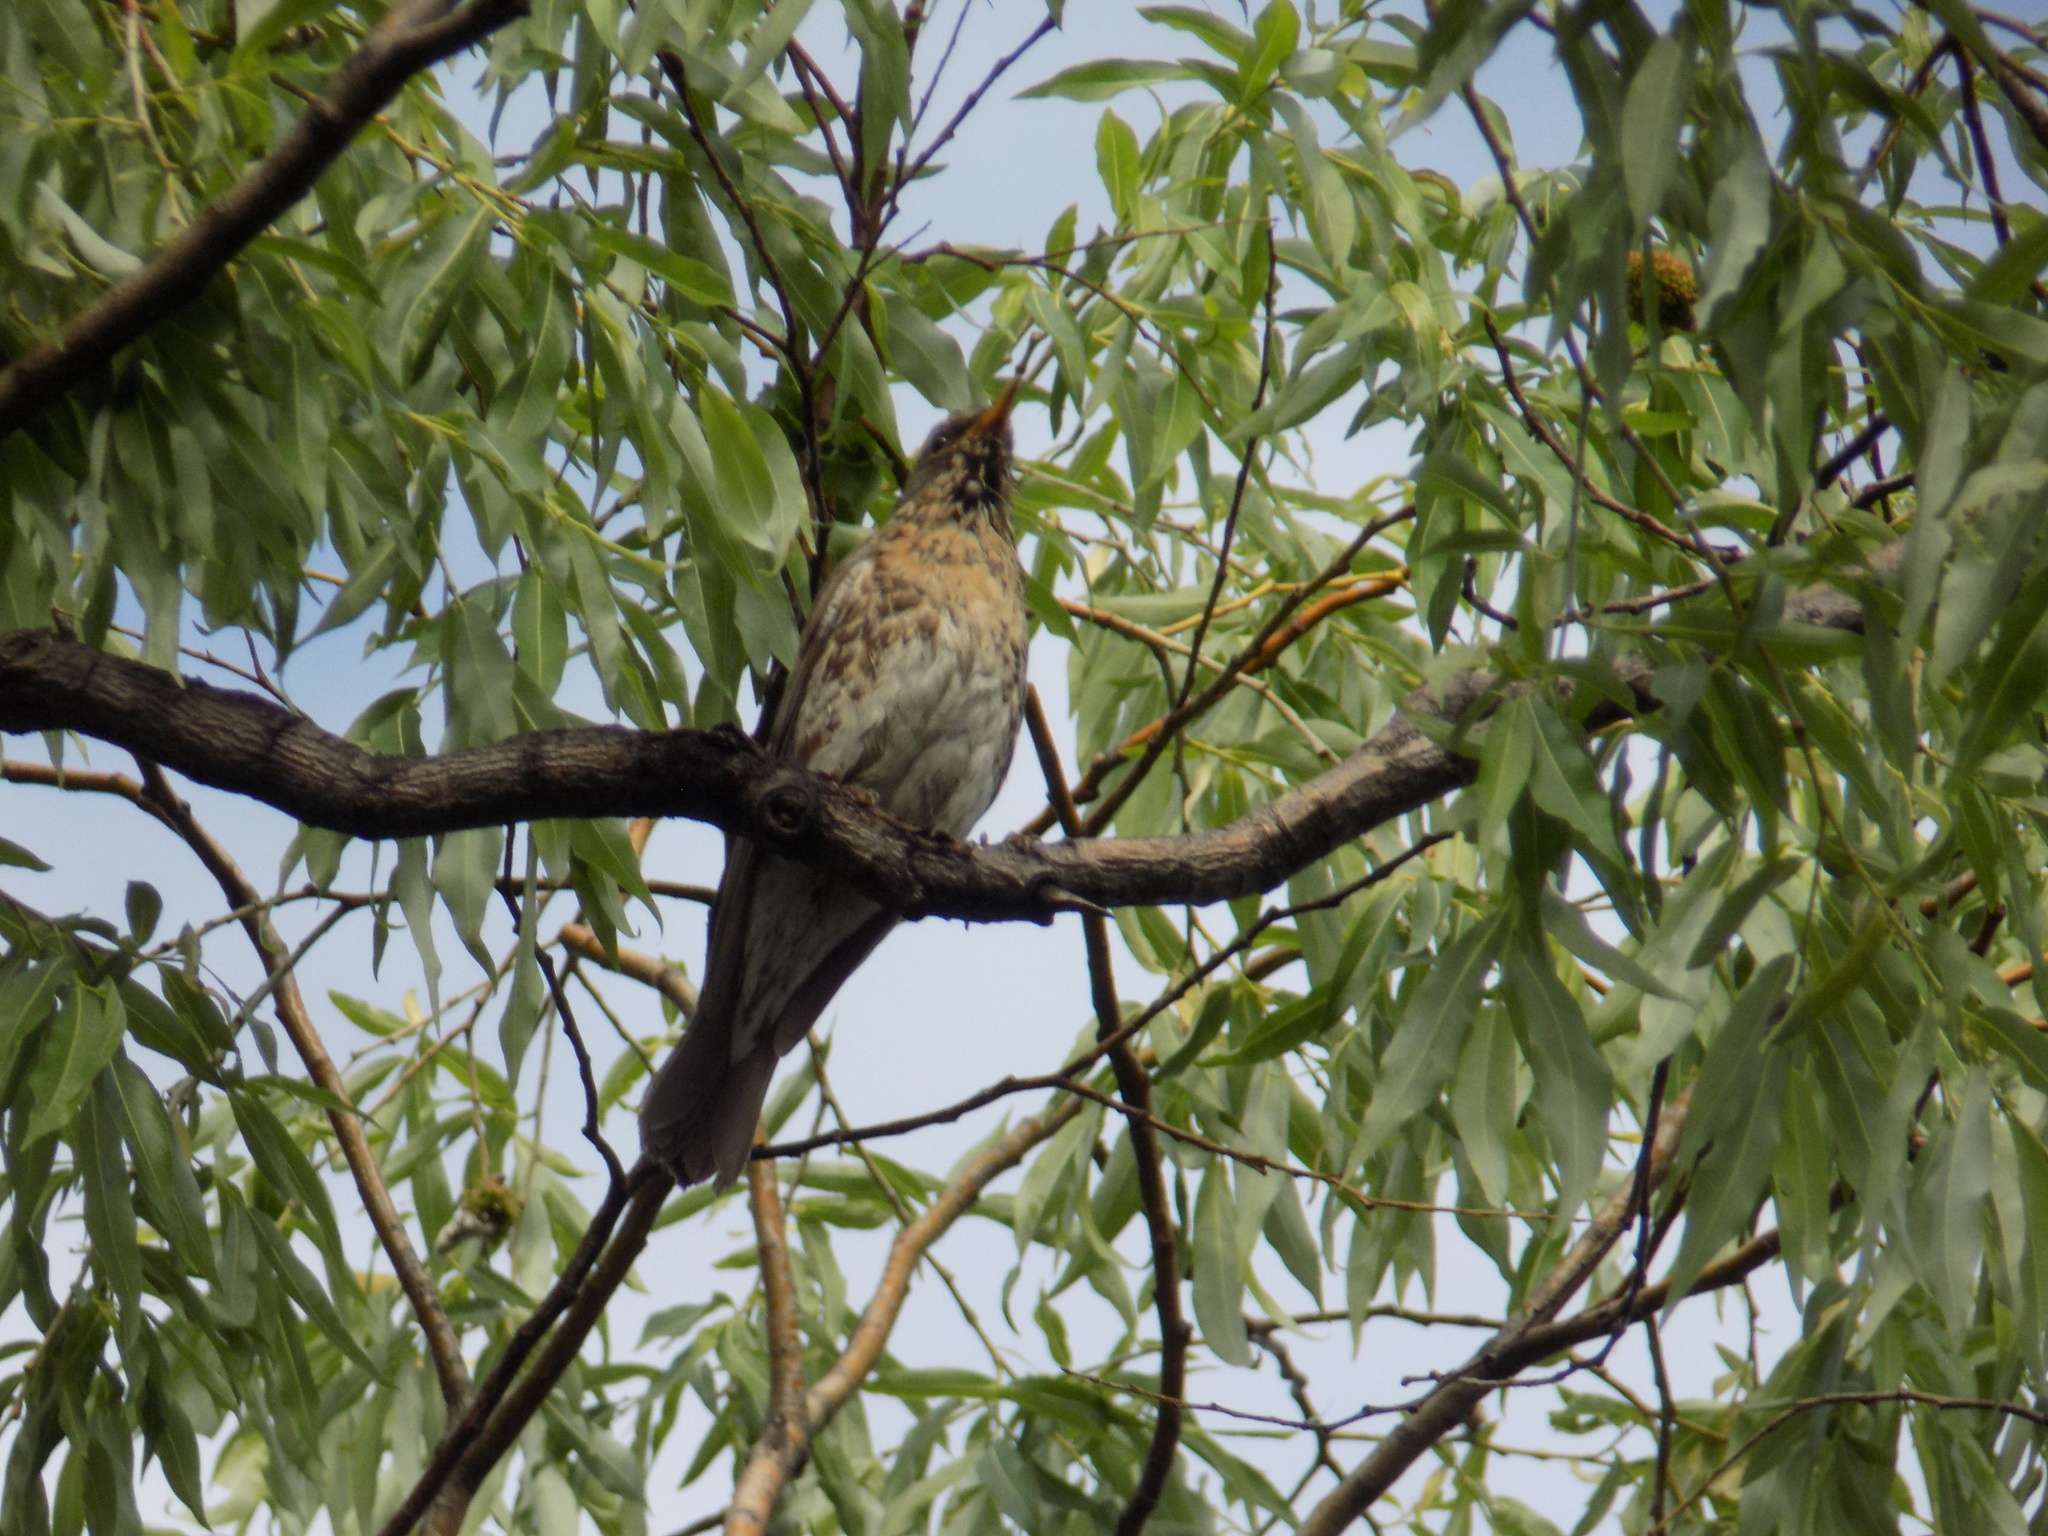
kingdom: Animalia
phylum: Chordata
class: Aves
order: Passeriformes
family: Turdidae
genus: Turdus
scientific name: Turdus pilaris
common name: Fieldfare
